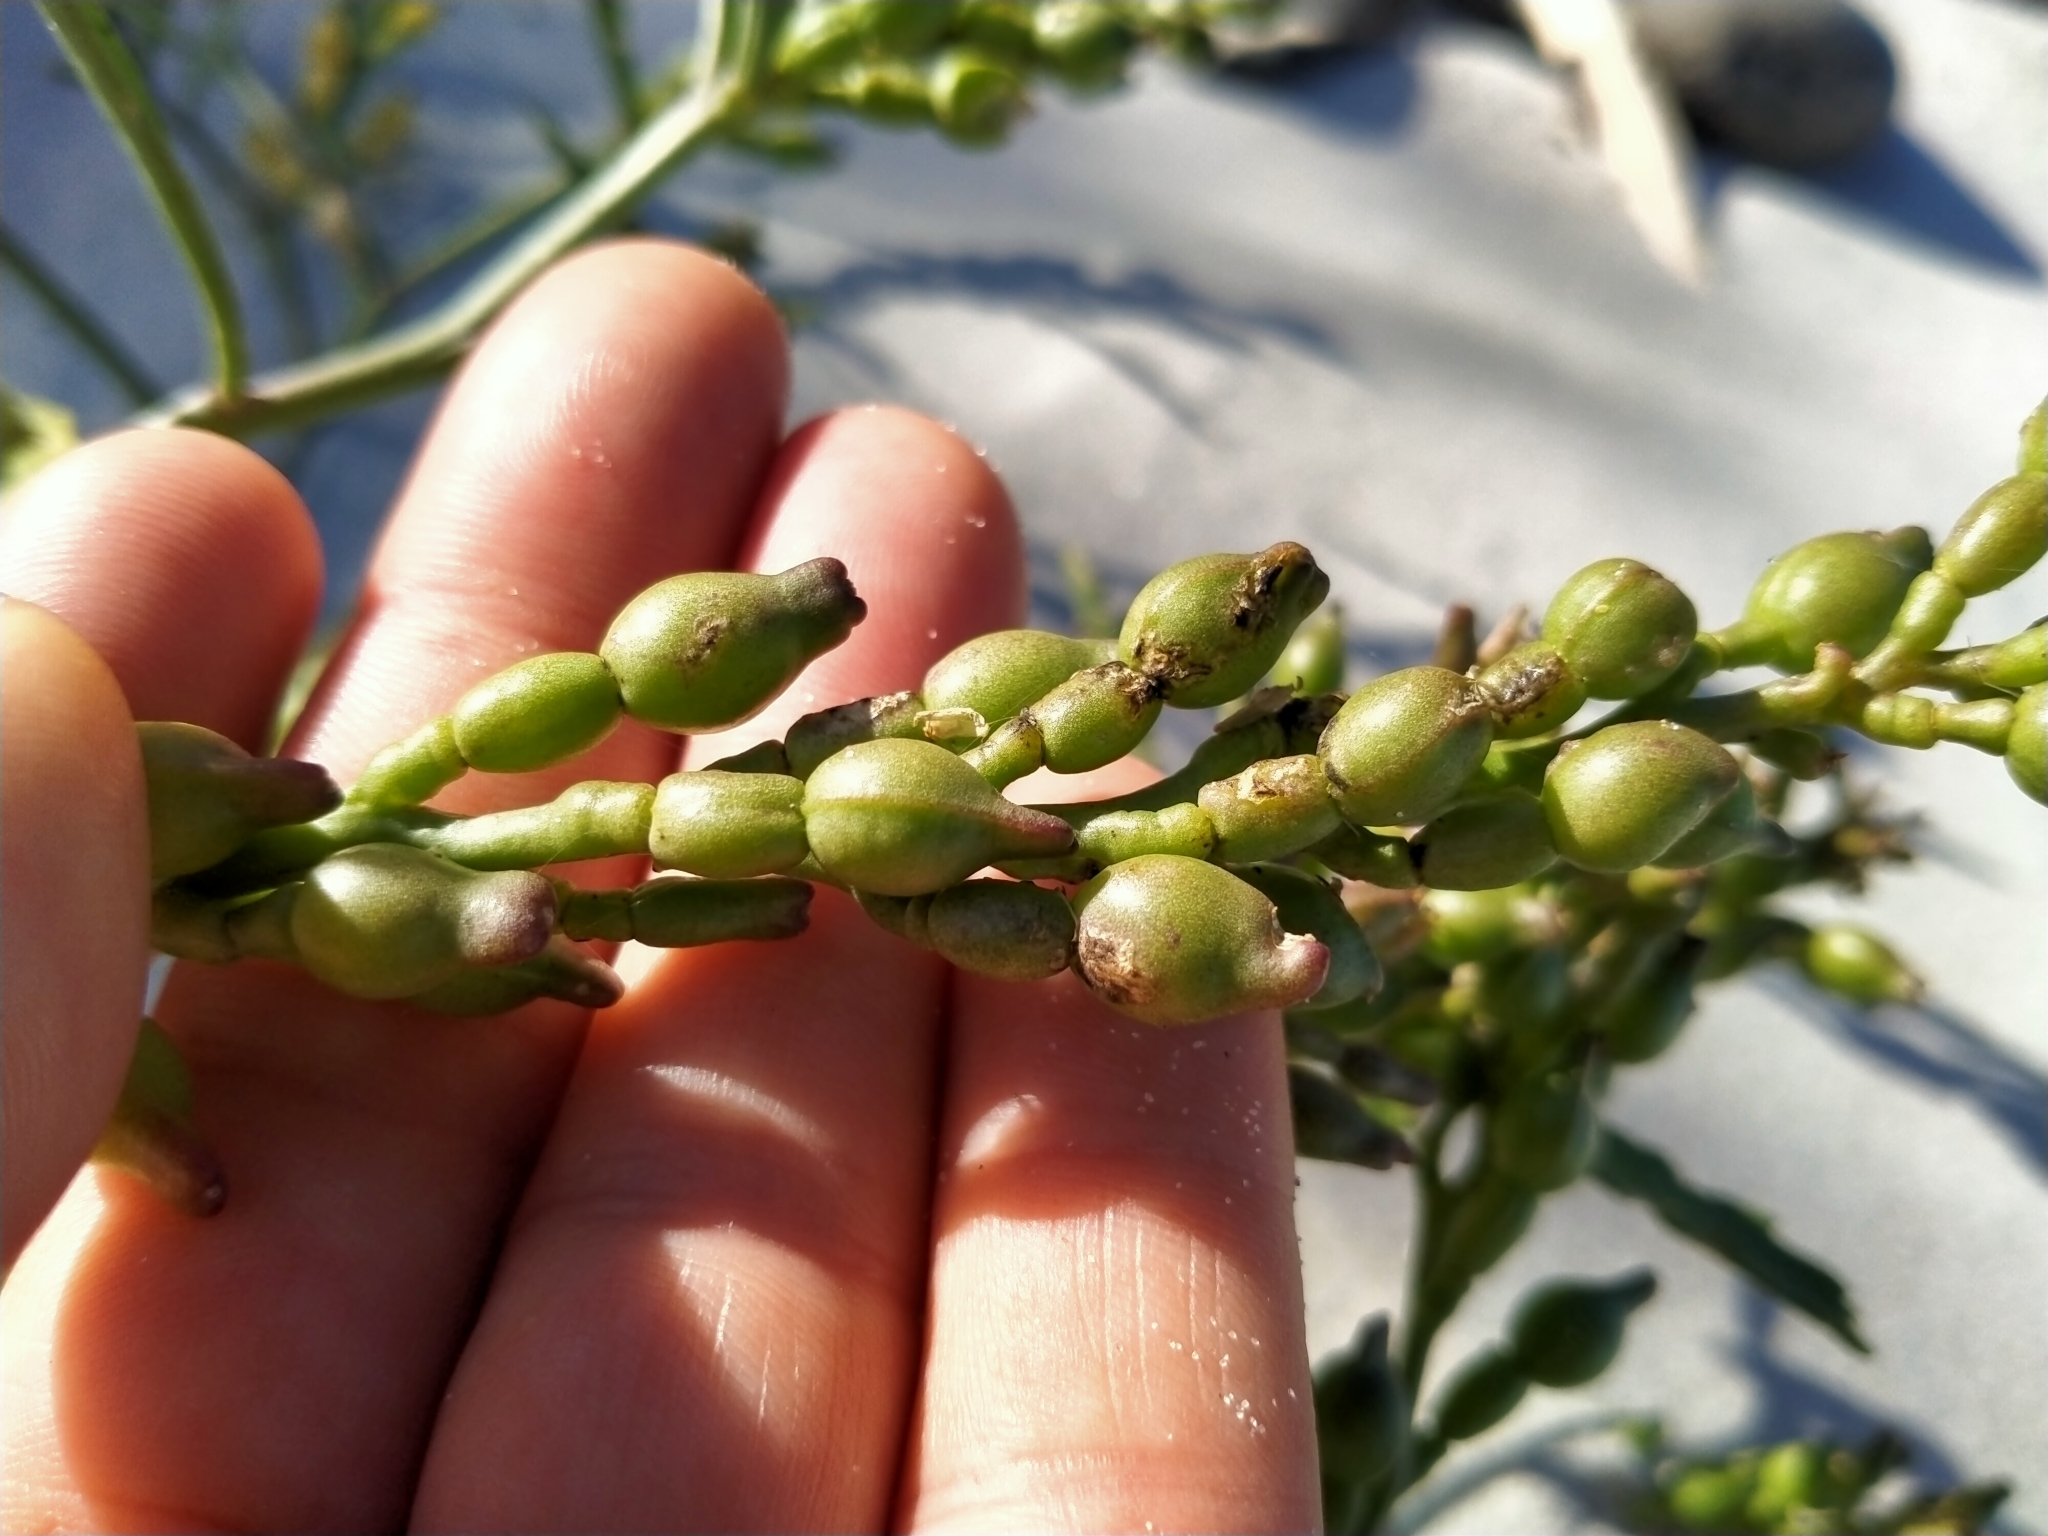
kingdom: Plantae
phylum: Tracheophyta
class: Magnoliopsida
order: Brassicales
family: Brassicaceae
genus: Cakile
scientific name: Cakile edentula
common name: American sea rocket
